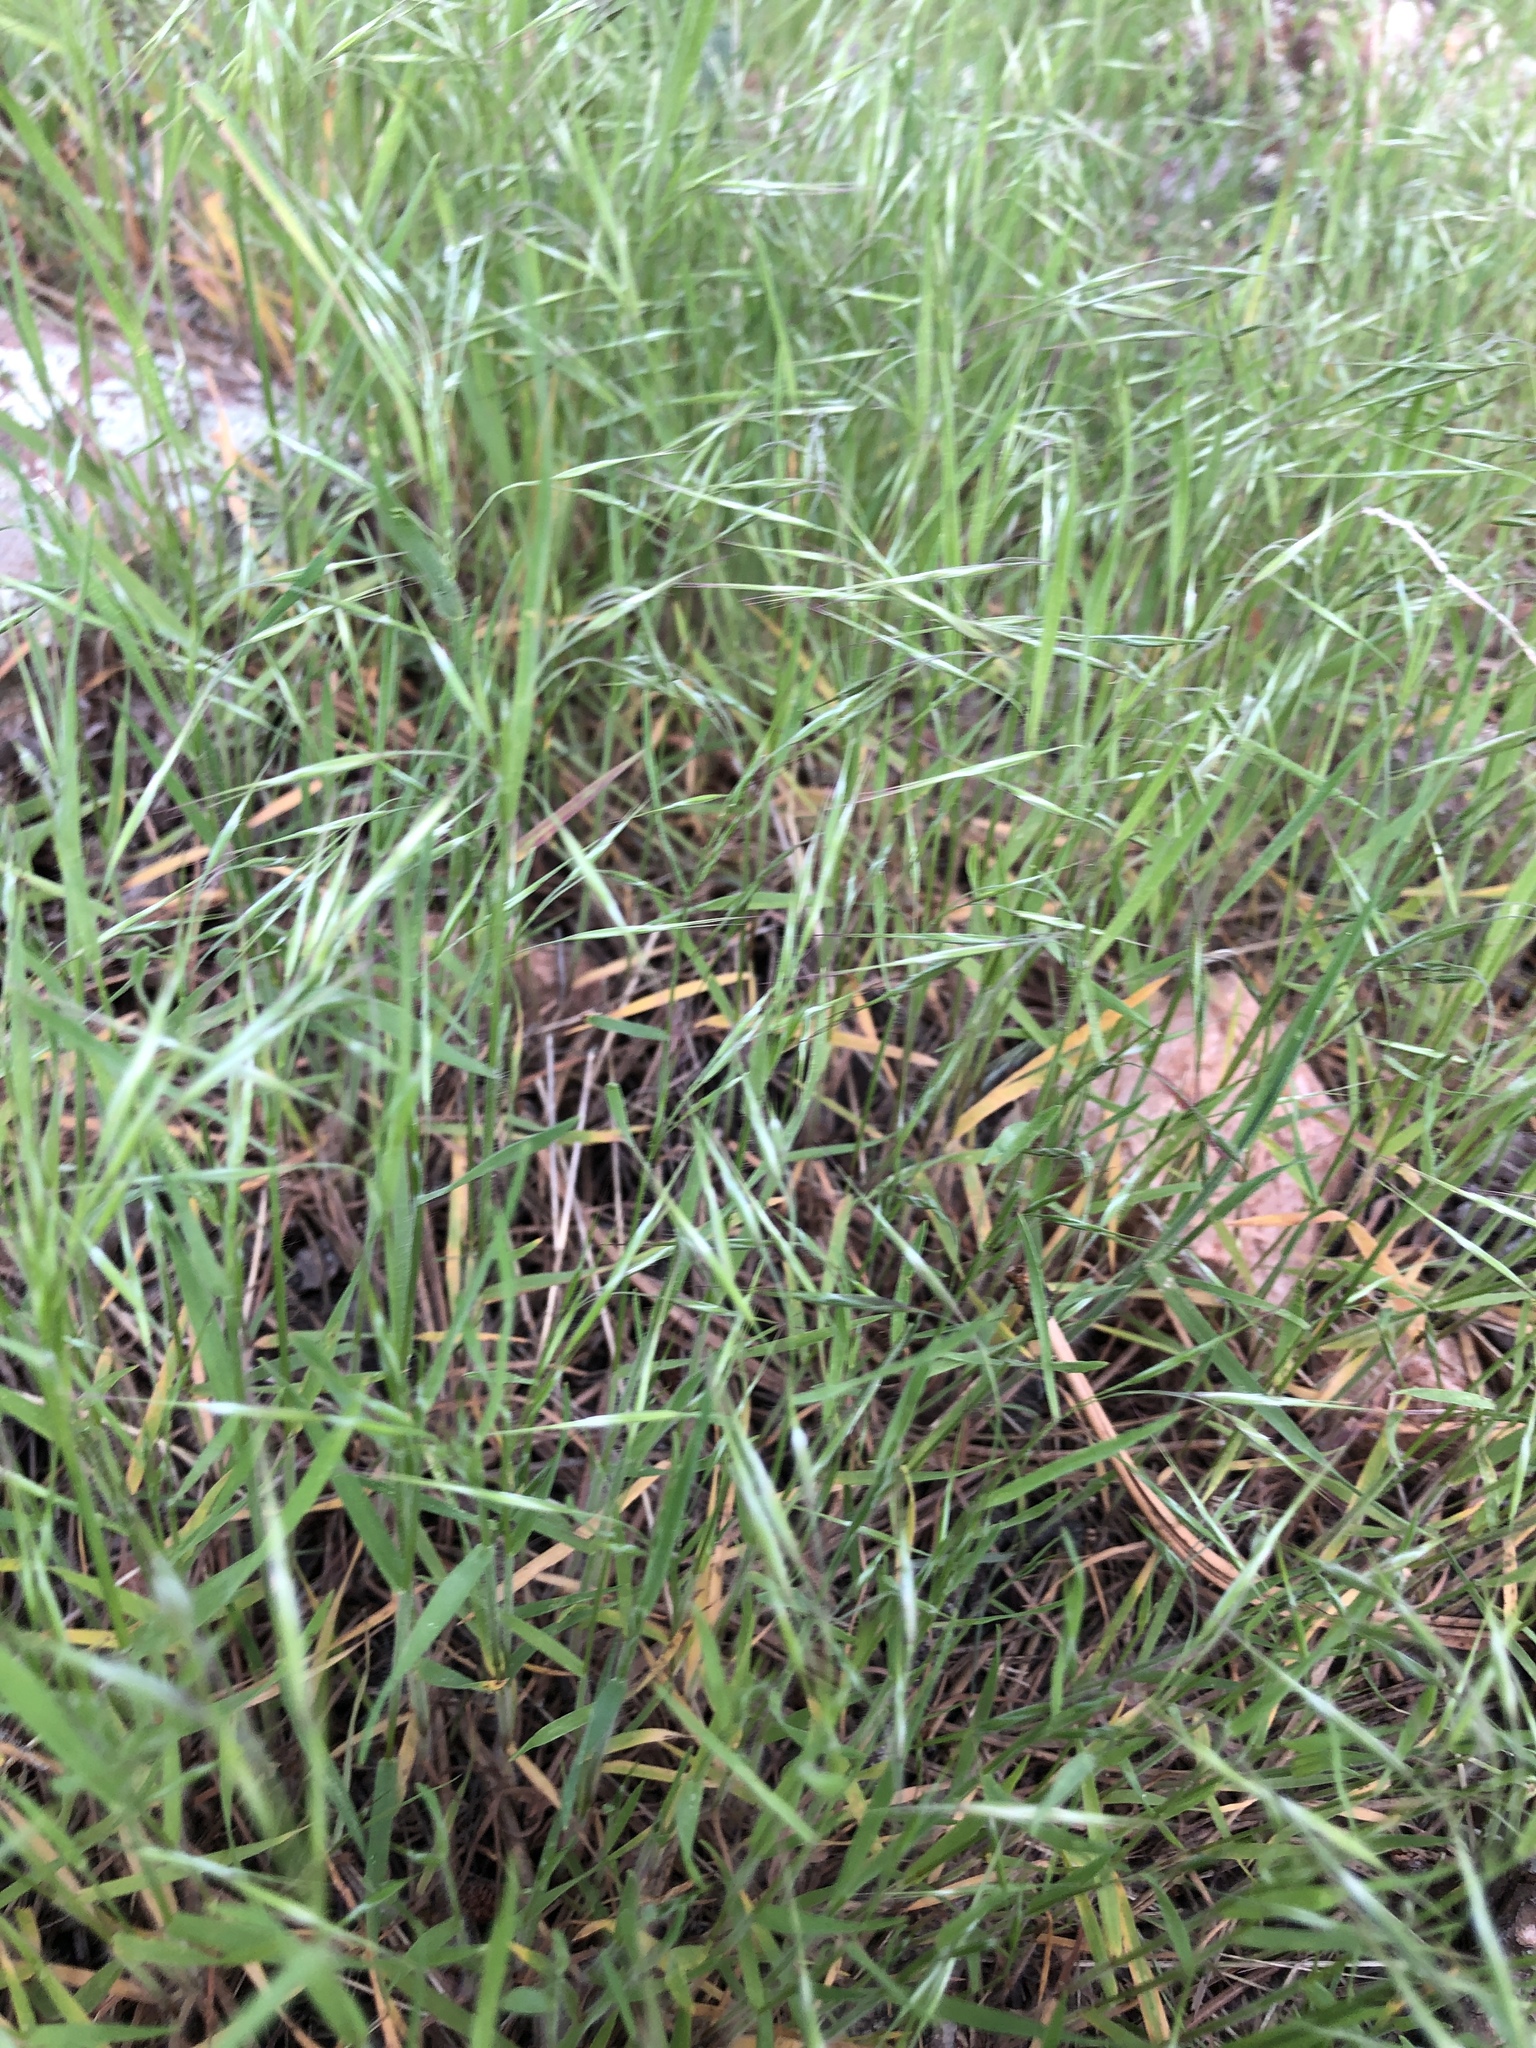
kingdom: Plantae
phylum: Tracheophyta
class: Liliopsida
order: Poales
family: Poaceae
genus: Bromus
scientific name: Bromus tectorum
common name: Cheatgrass
